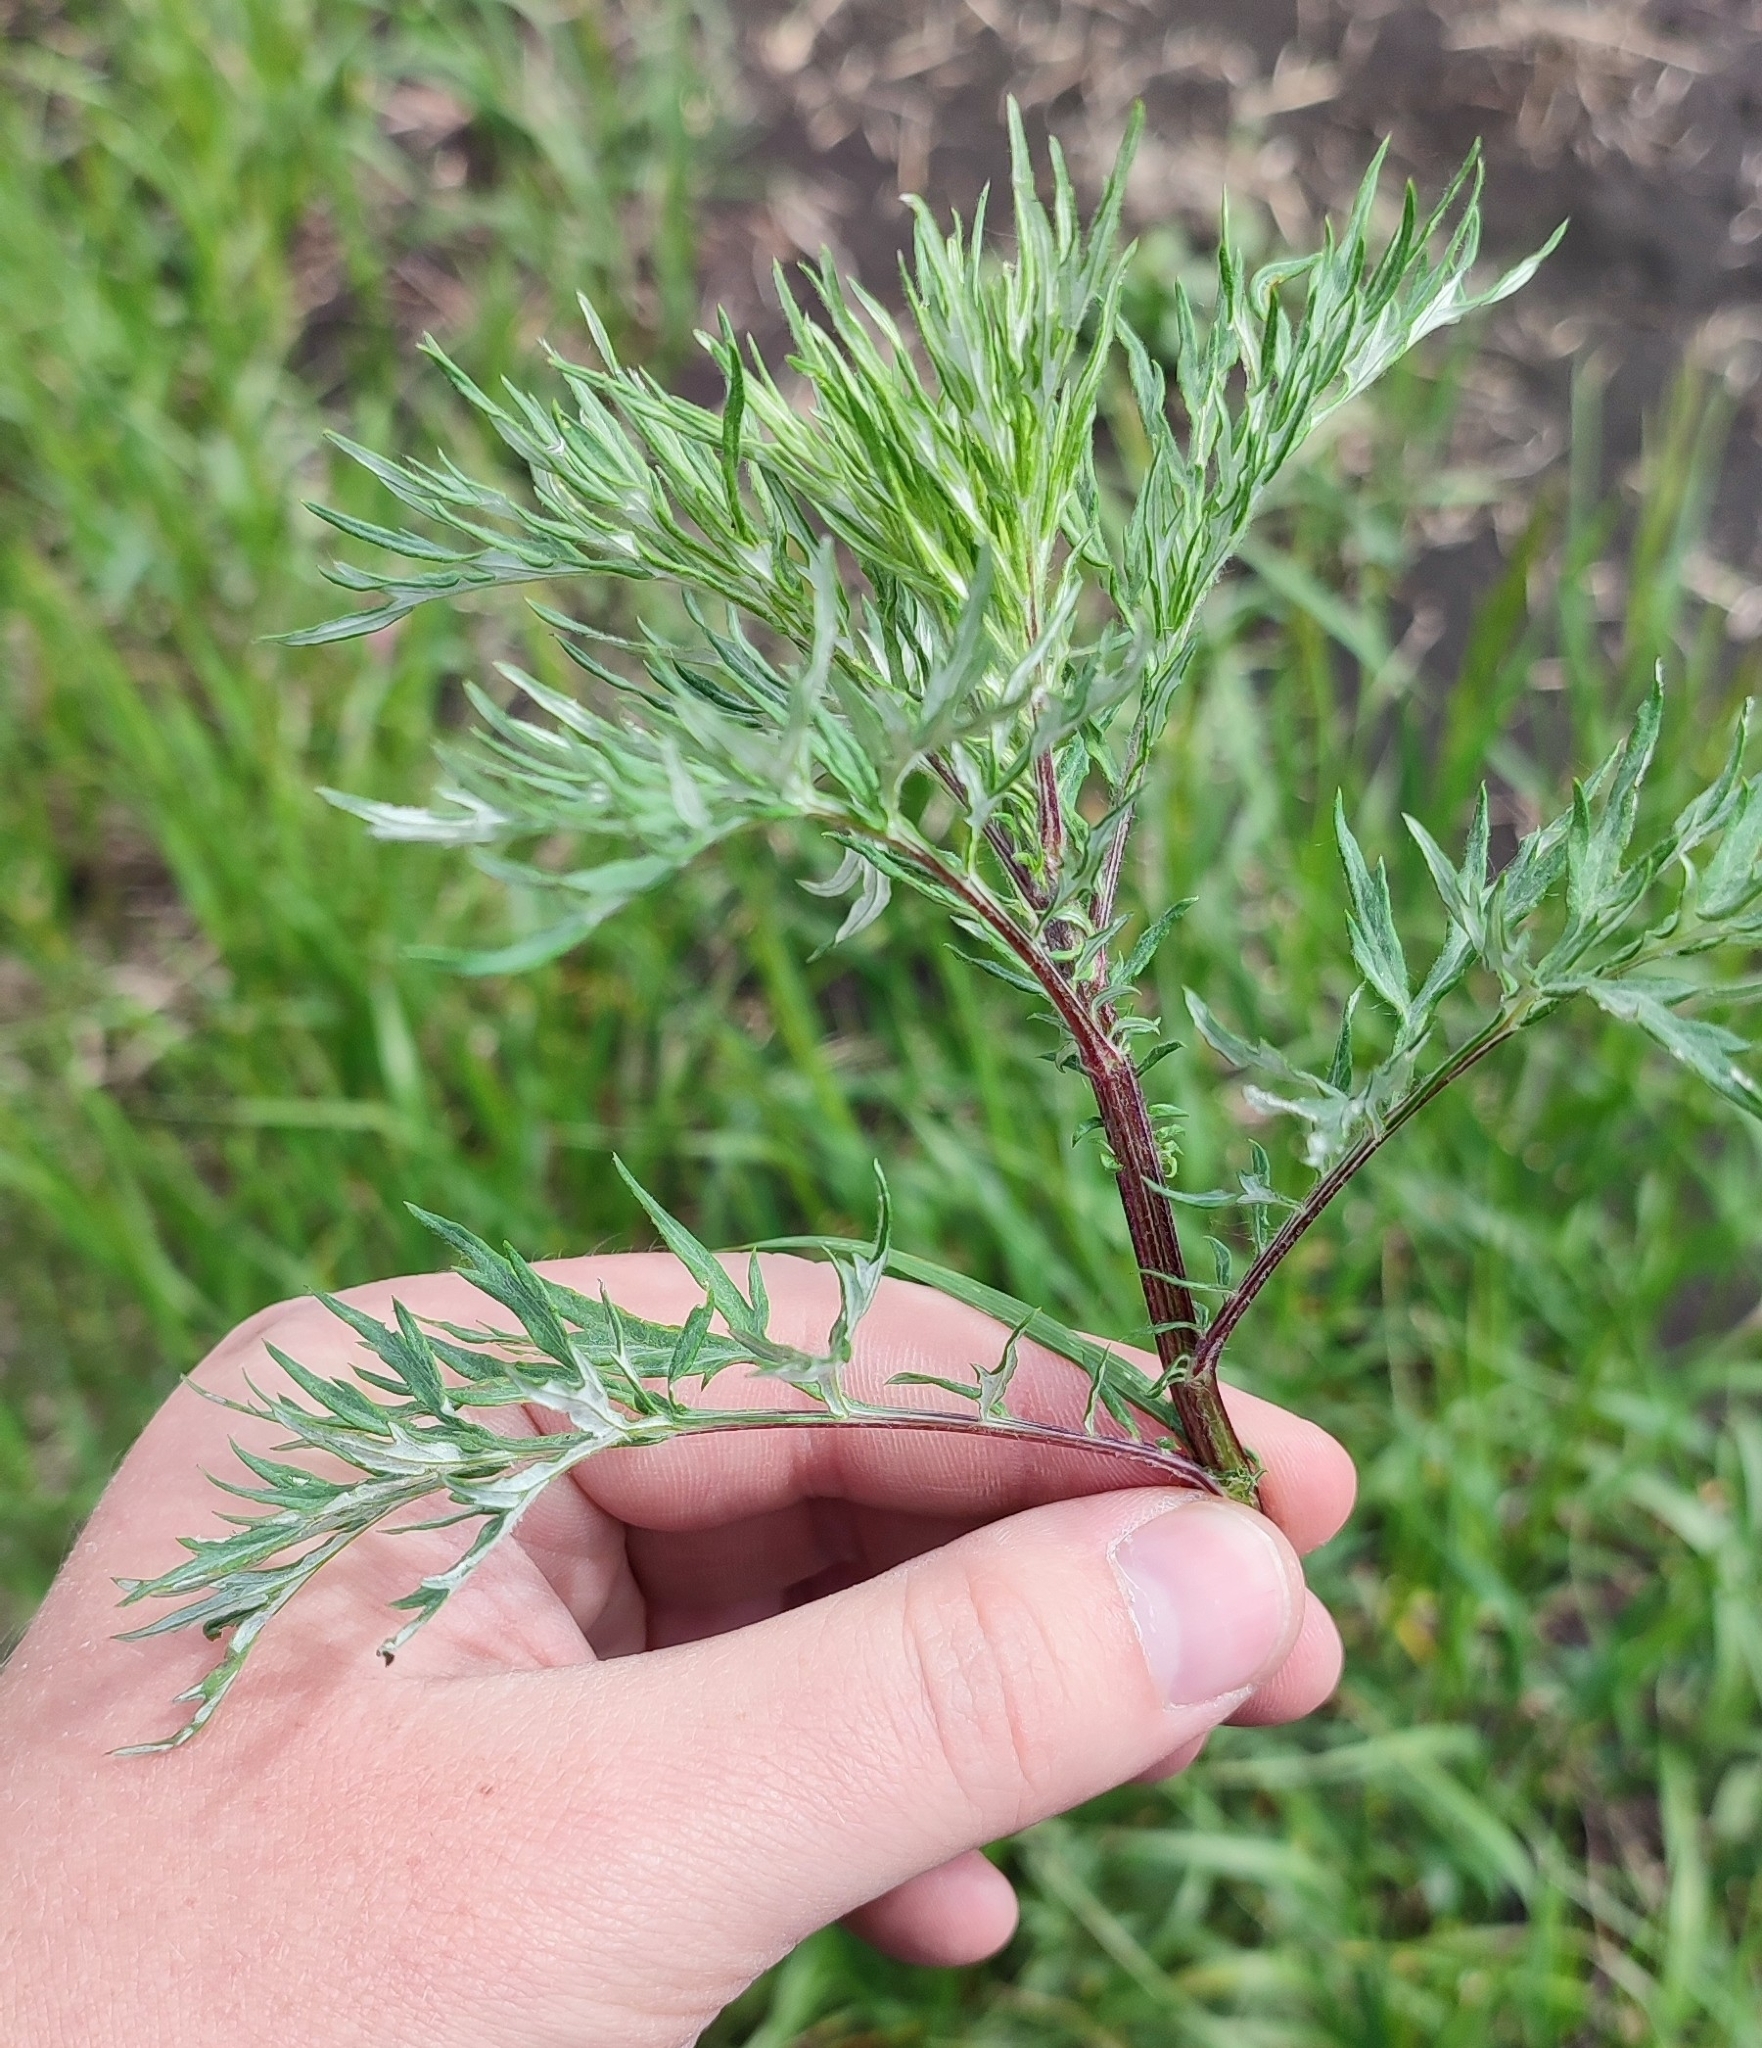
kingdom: Plantae
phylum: Tracheophyta
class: Magnoliopsida
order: Asterales
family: Asteraceae
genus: Artemisia
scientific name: Artemisia vulgaris
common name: Mugwort
